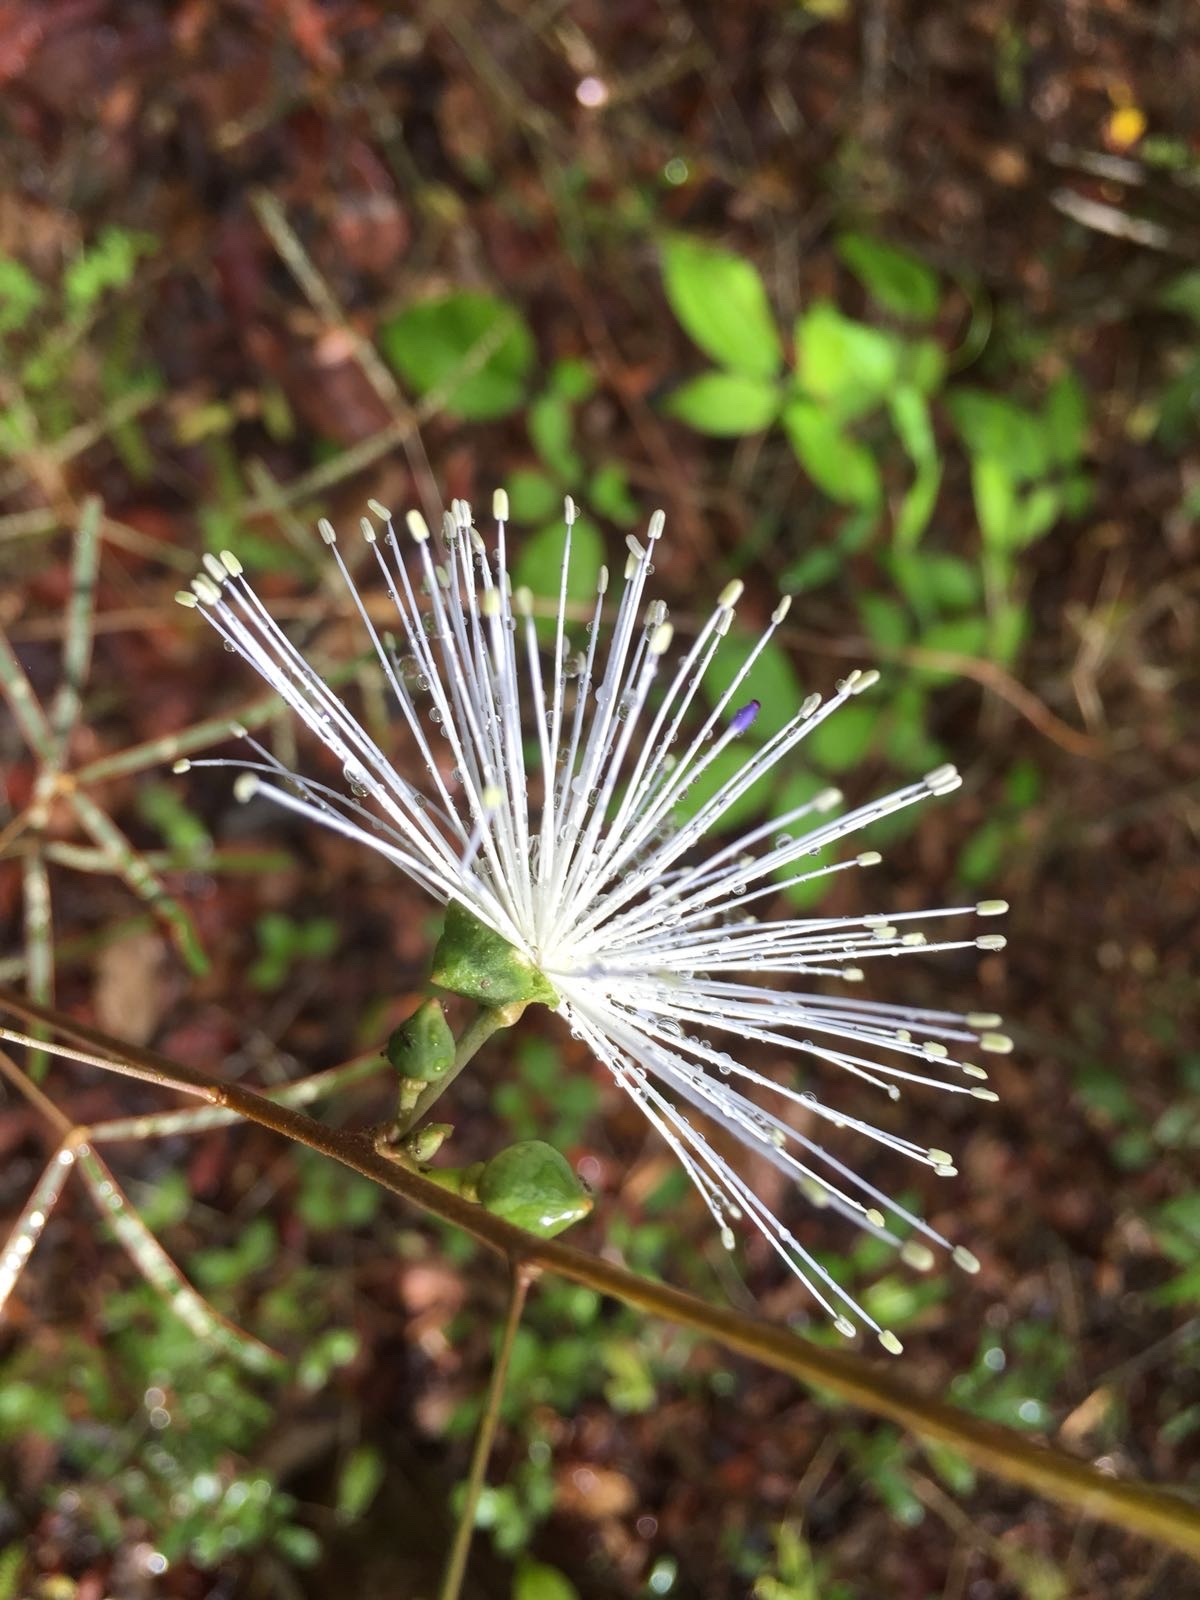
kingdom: Plantae
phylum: Tracheophyta
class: Magnoliopsida
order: Brassicales
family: Capparaceae
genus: Thilachium
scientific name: Thilachium angustifolium
